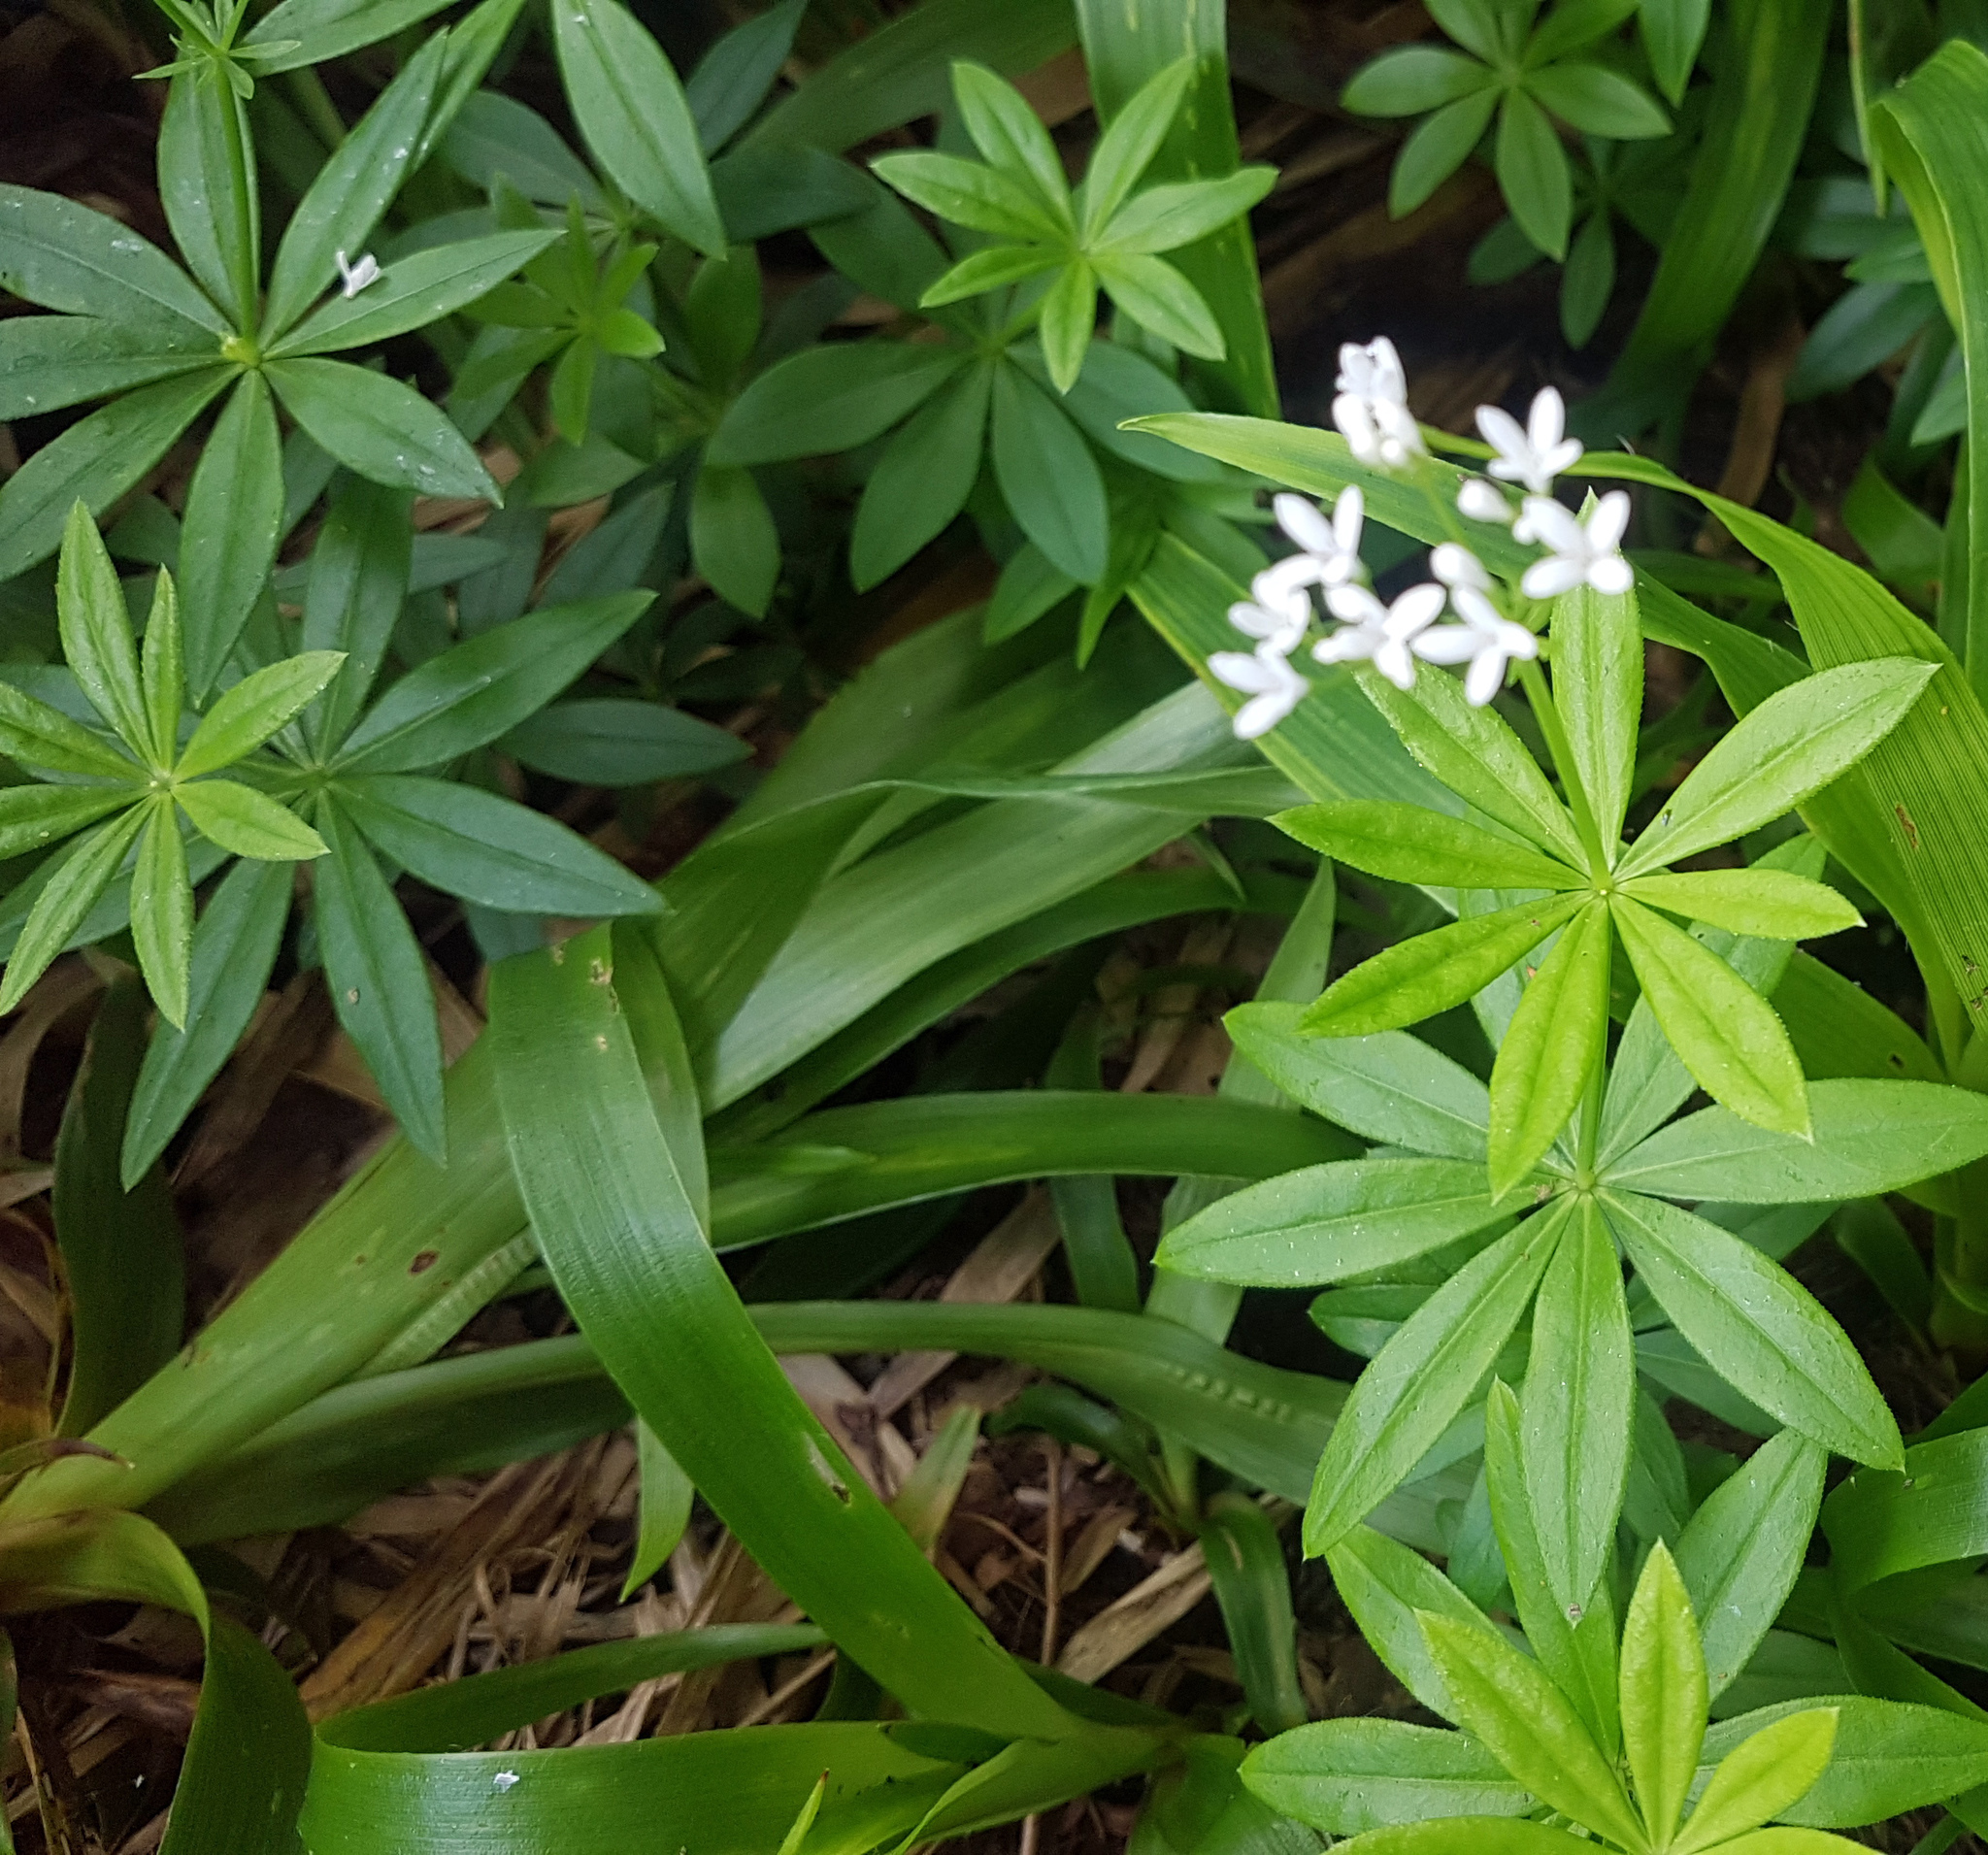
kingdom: Plantae
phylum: Tracheophyta
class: Magnoliopsida
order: Gentianales
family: Rubiaceae
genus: Galium
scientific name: Galium odoratum
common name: Sweet woodruff
